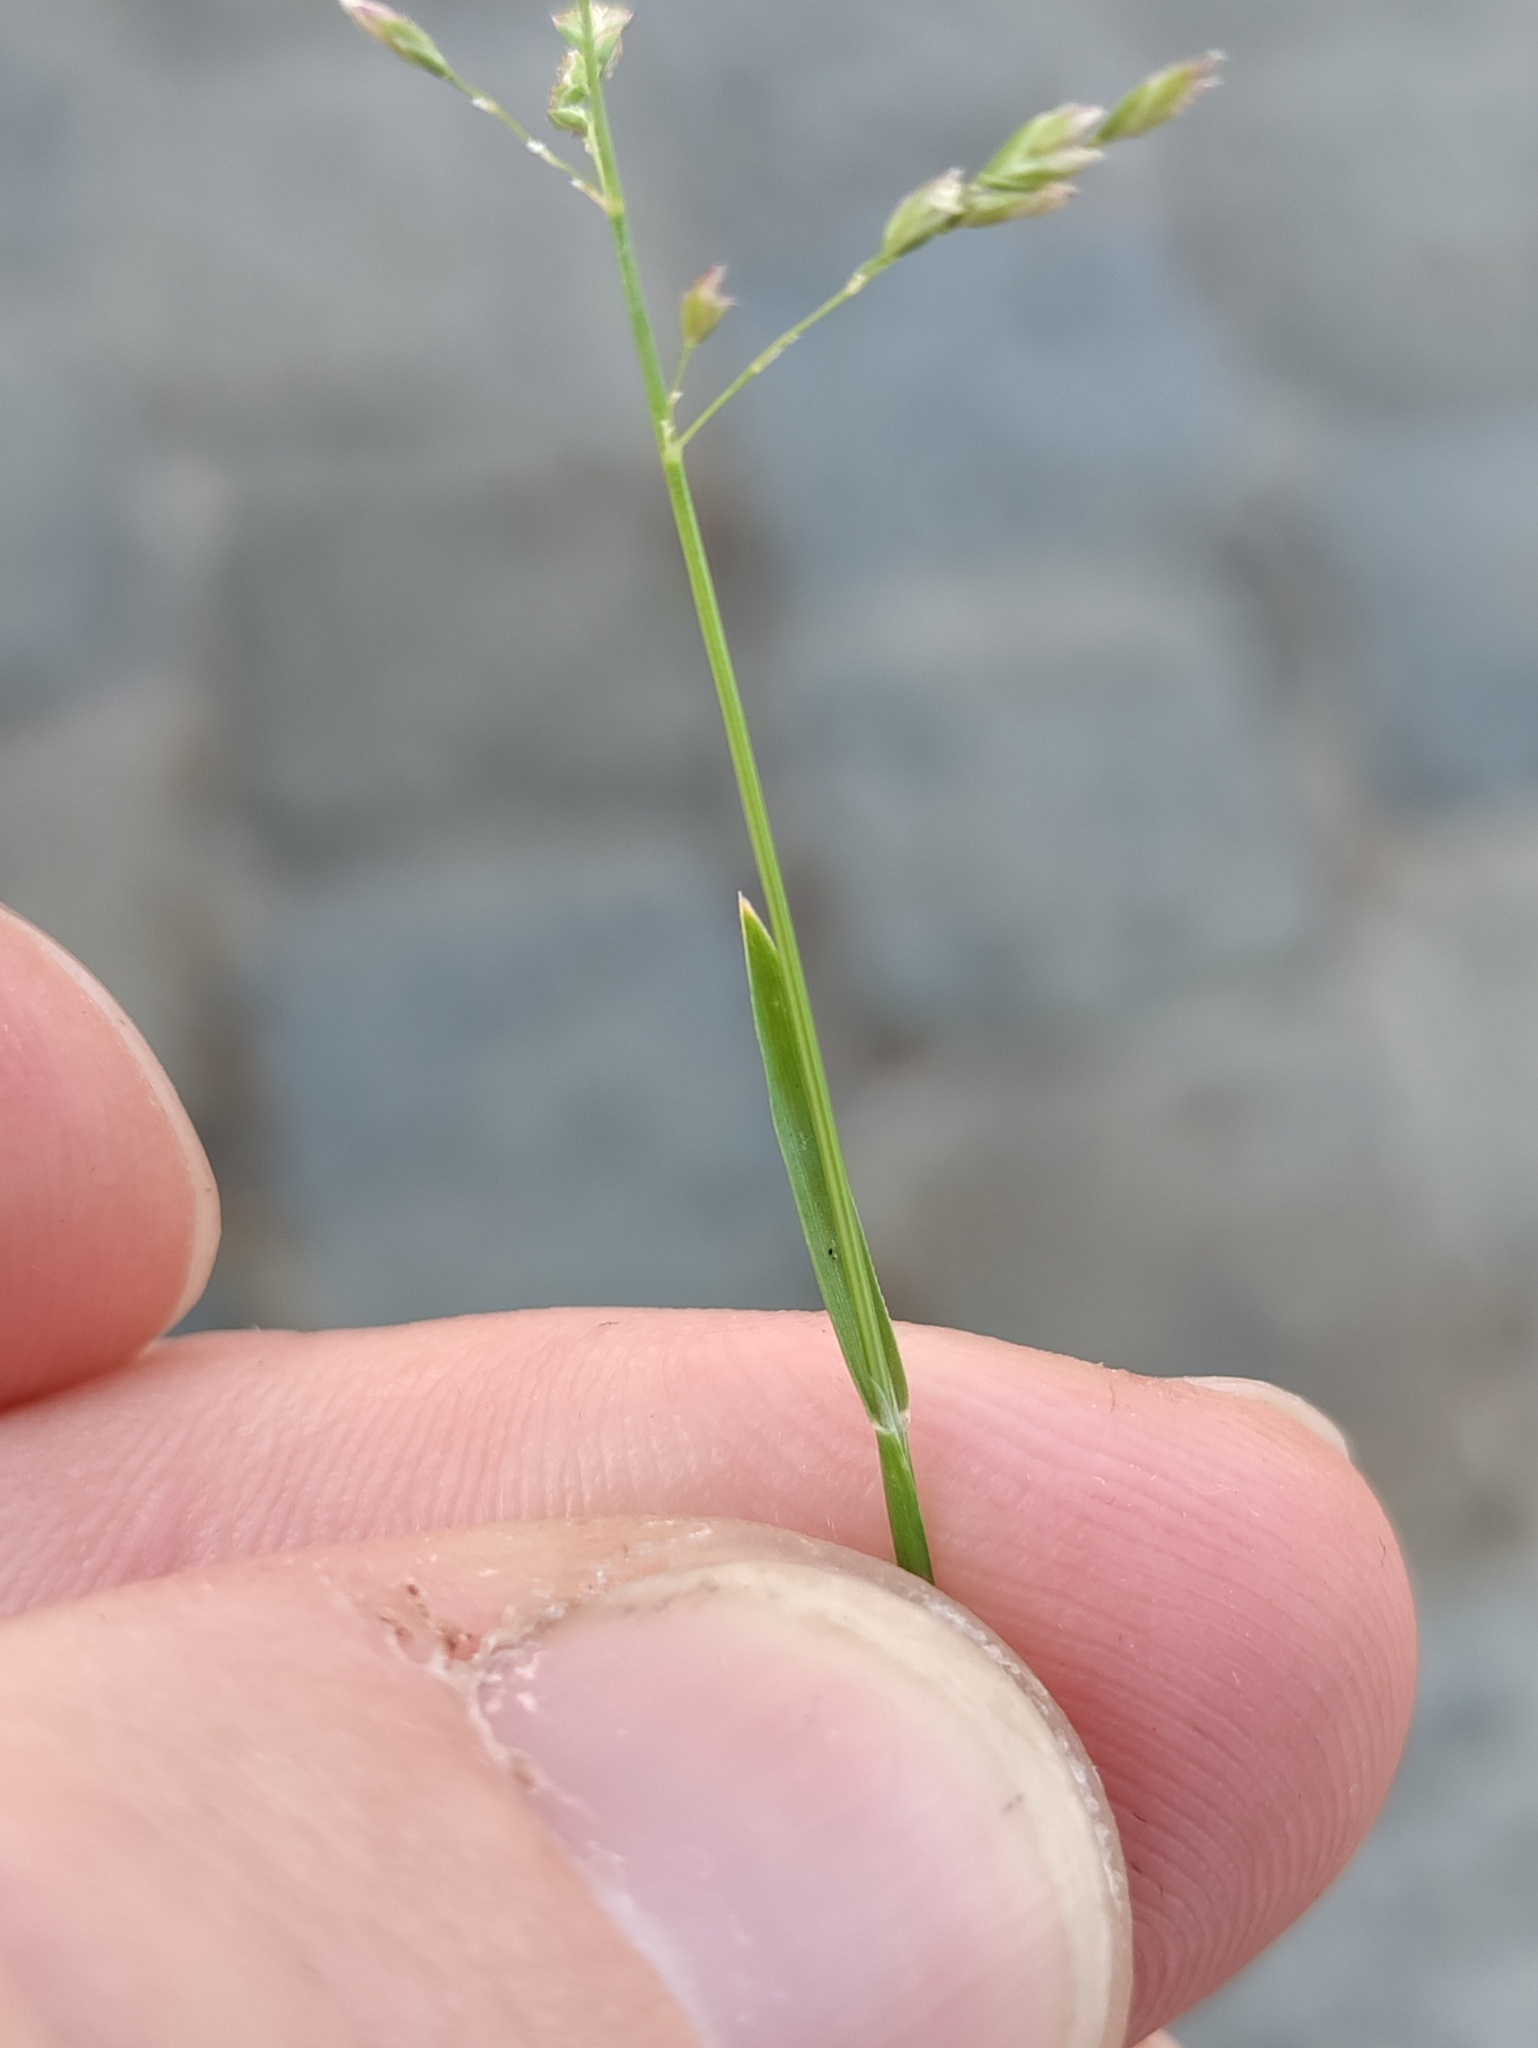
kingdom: Plantae
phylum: Tracheophyta
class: Liliopsida
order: Poales
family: Poaceae
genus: Poa
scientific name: Poa annua
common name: Annual bluegrass
